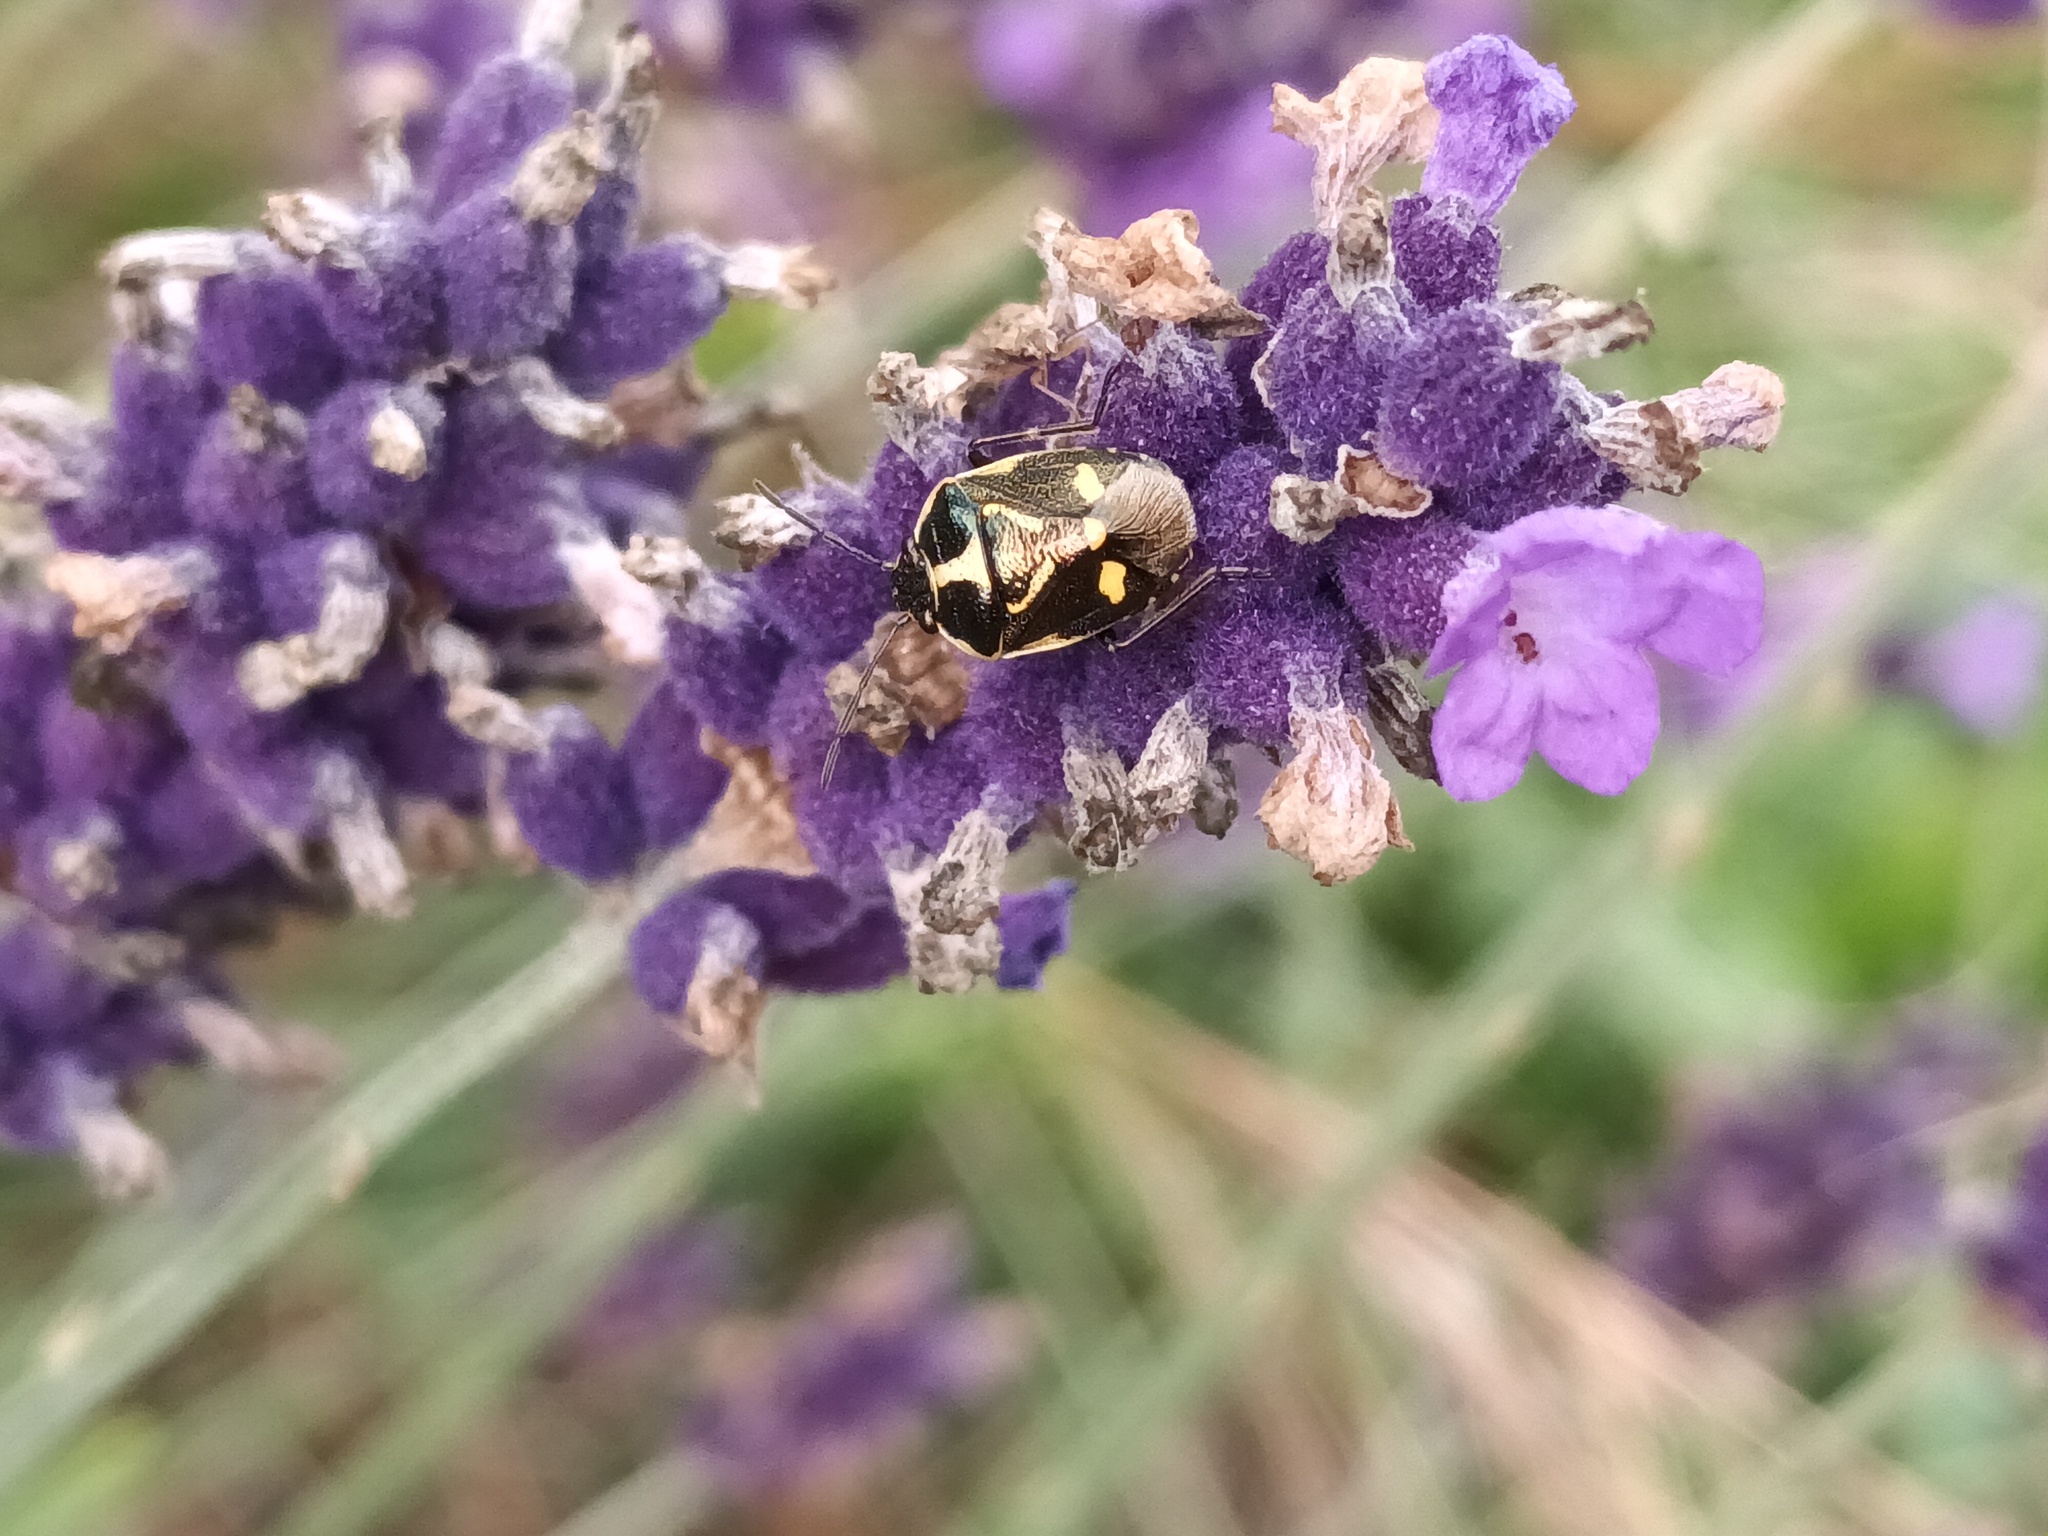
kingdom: Animalia
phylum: Arthropoda
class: Insecta
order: Hemiptera
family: Pentatomidae
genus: Eurydema
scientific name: Eurydema oleracea
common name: Cabbage bug
